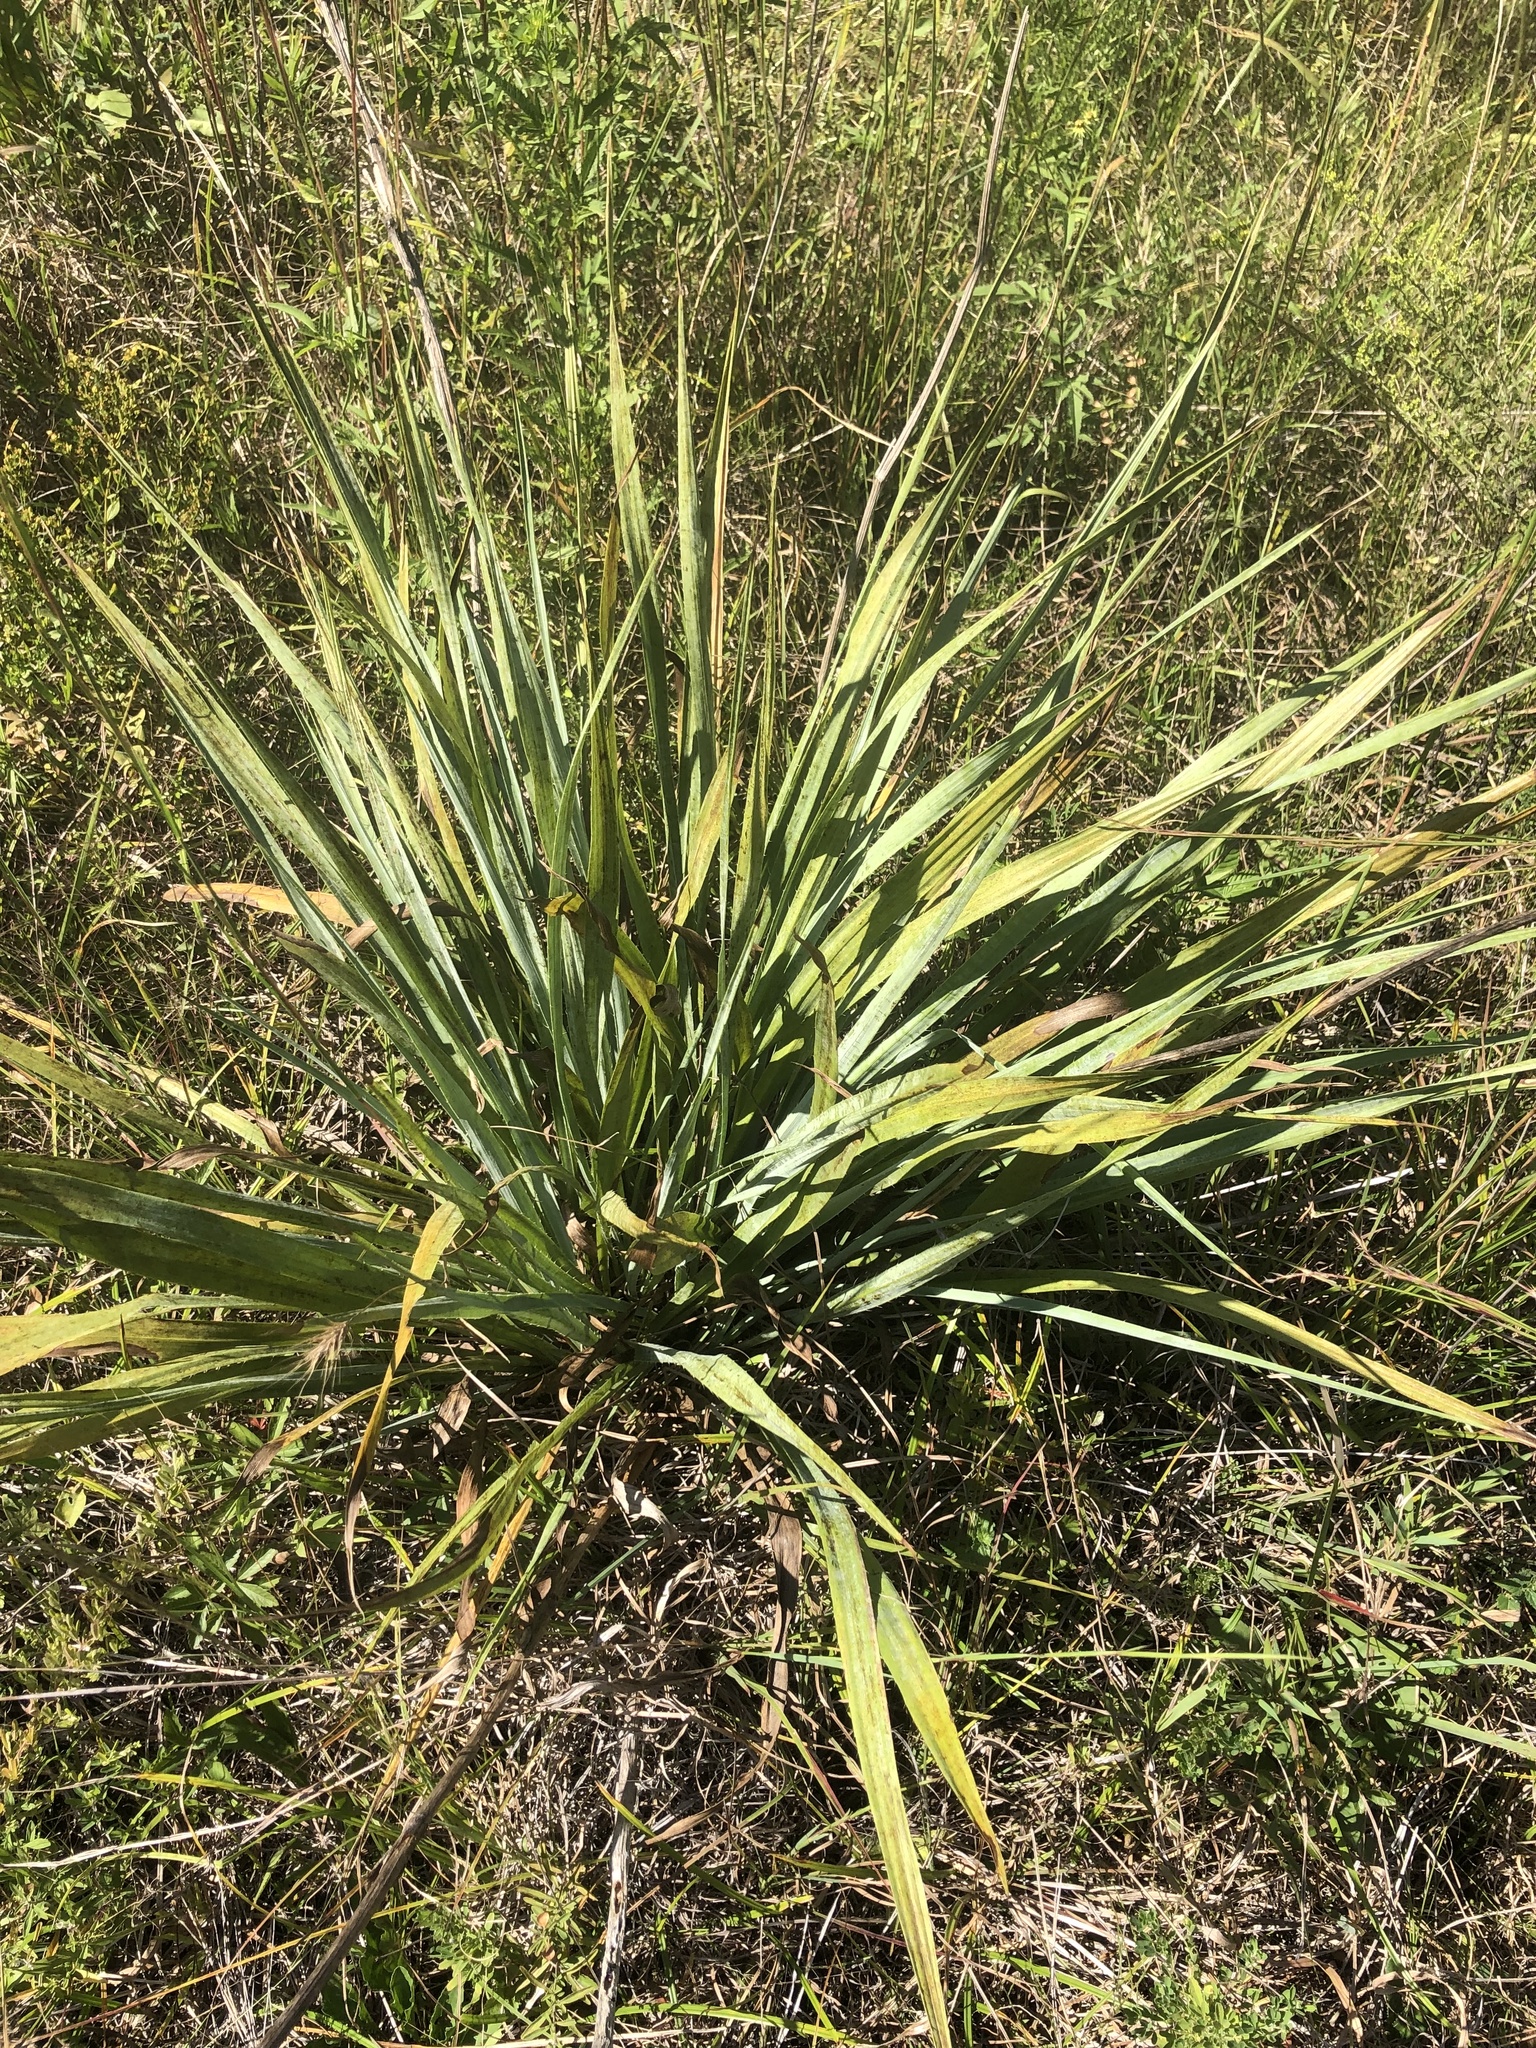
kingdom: Plantae
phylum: Tracheophyta
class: Magnoliopsida
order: Apiales
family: Apiaceae
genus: Eryngium
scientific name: Eryngium yuccifolium
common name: Button eryngo
